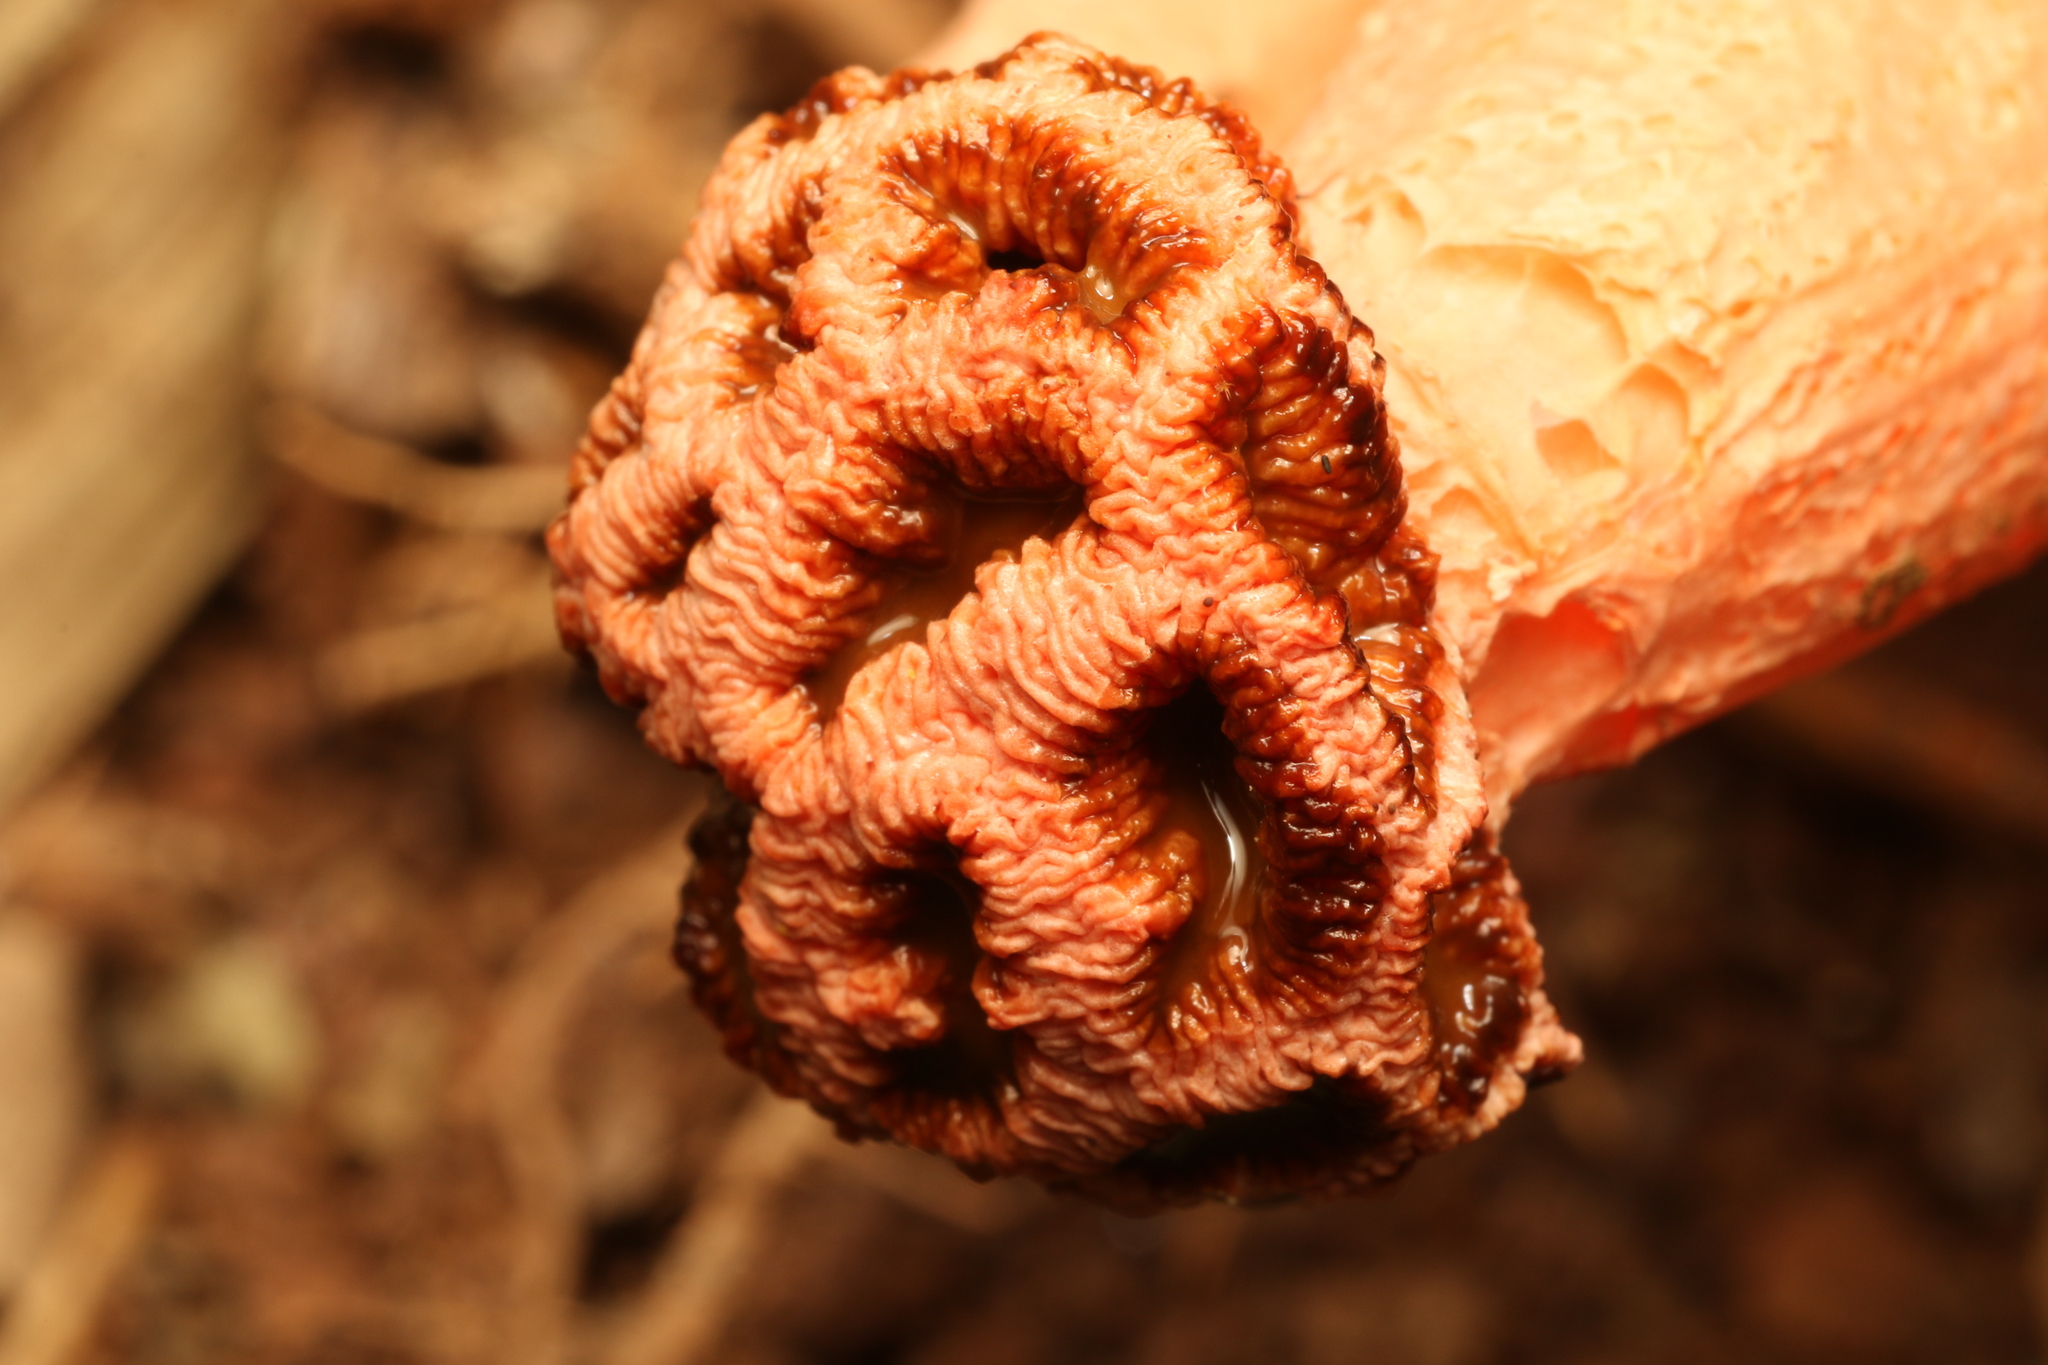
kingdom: Fungi
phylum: Basidiomycota
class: Agaricomycetes
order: Phallales
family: Phallaceae
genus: Lysurus
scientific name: Lysurus periphragmoides
